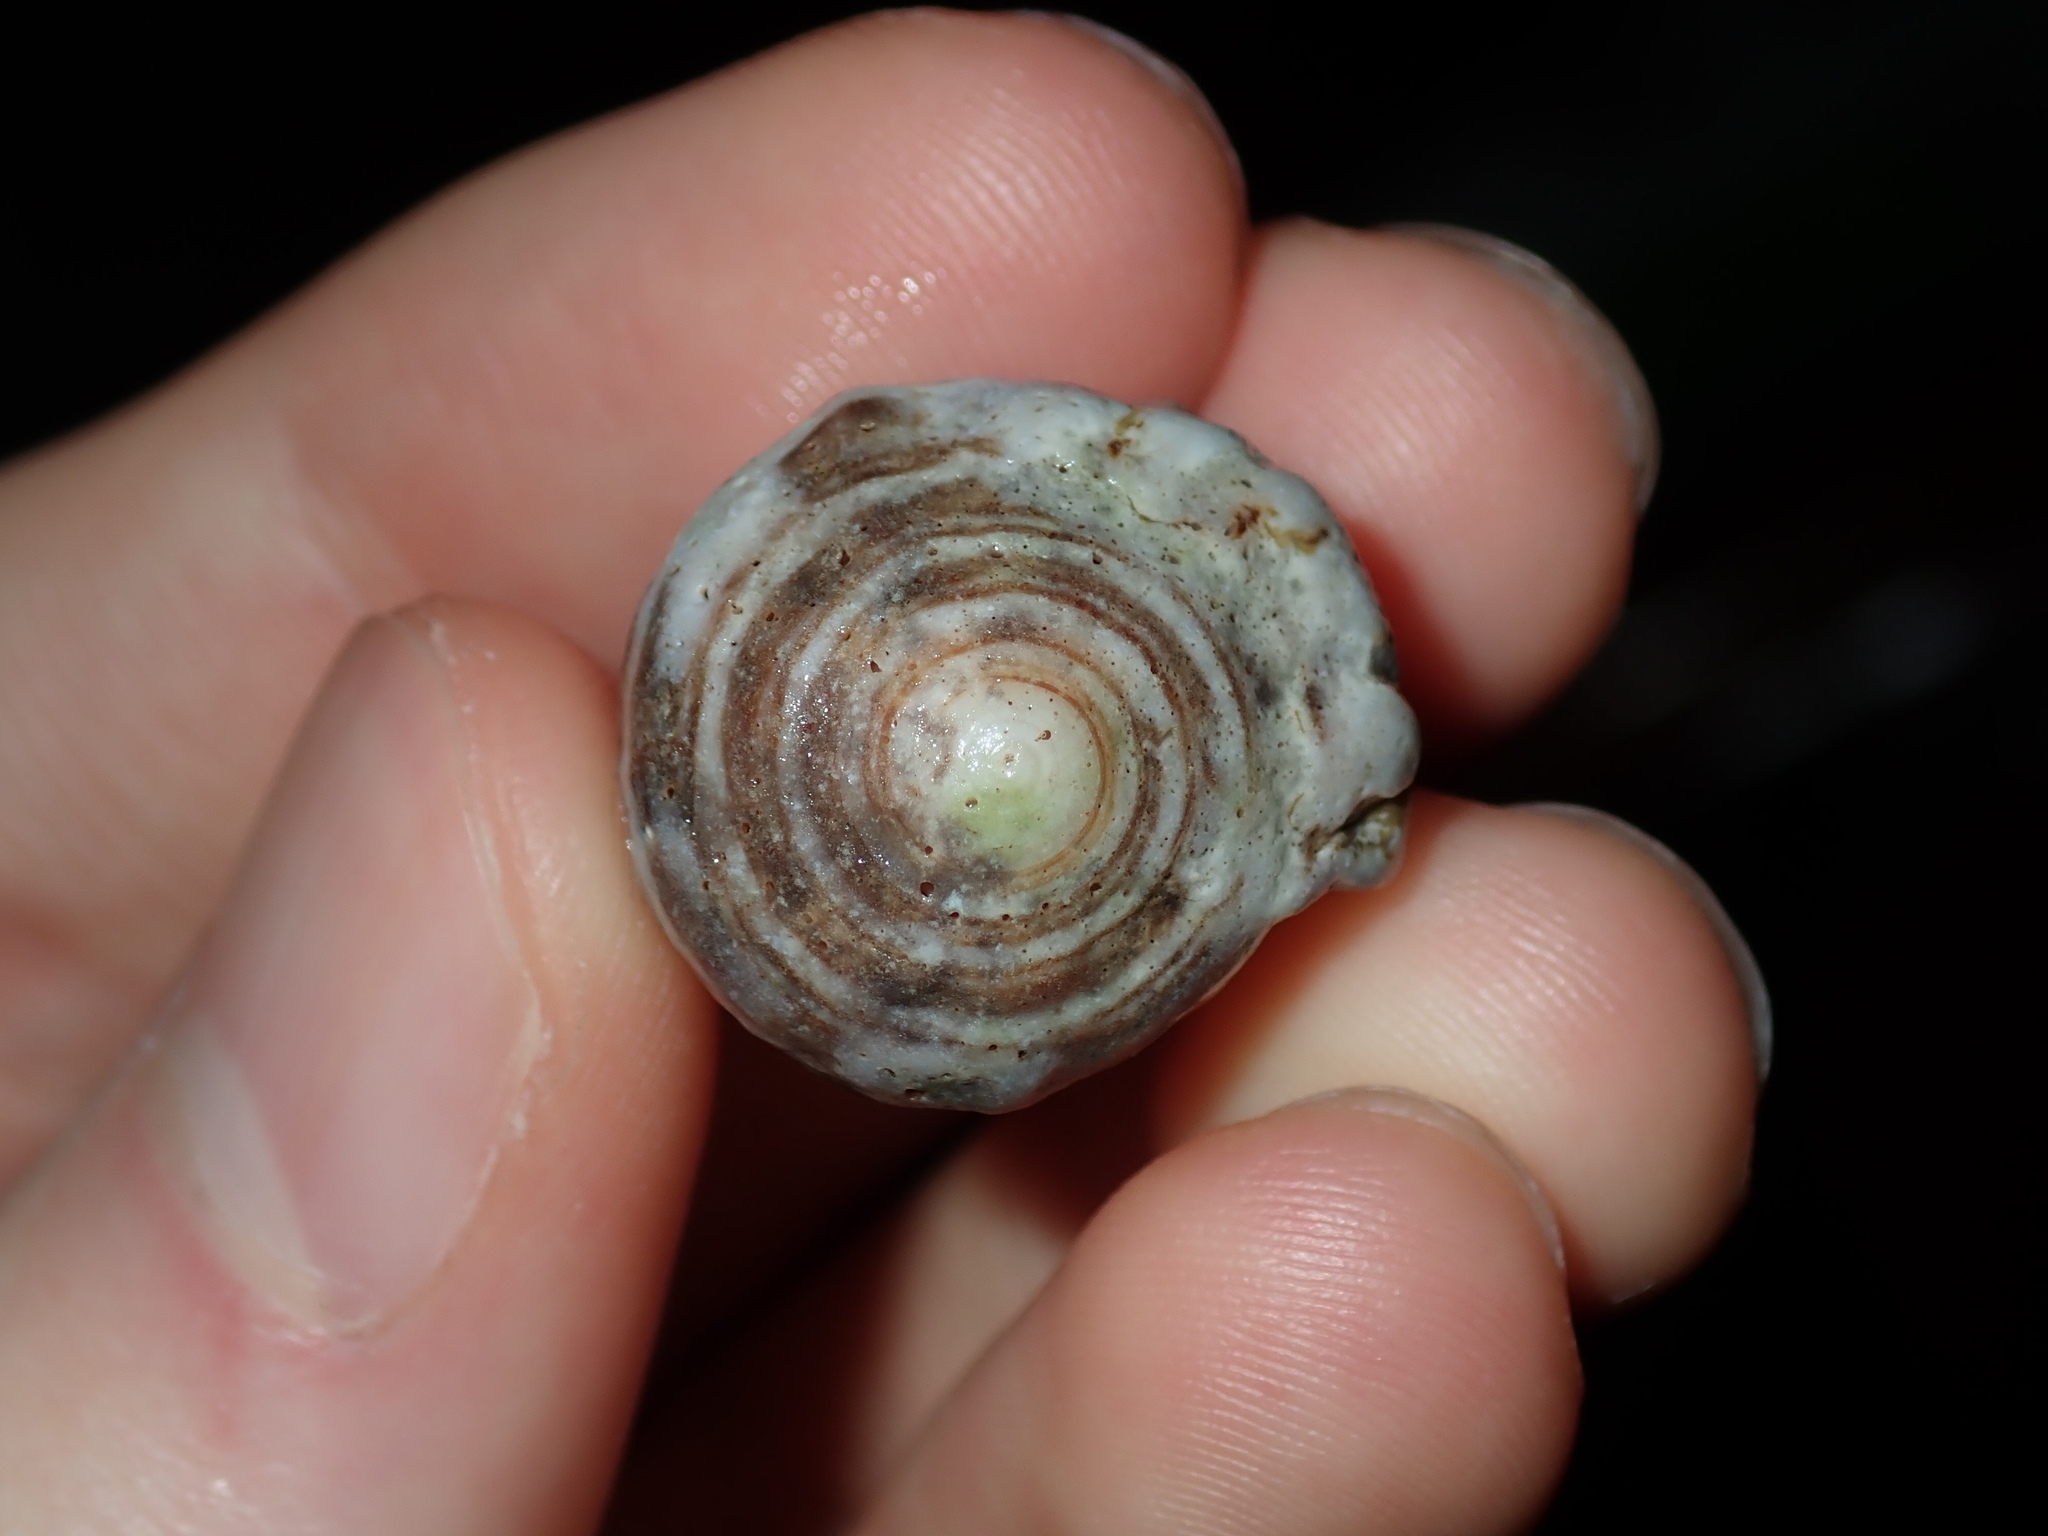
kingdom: Animalia
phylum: Mollusca
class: Gastropoda
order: Neogastropoda
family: Conidae
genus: Conus
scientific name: Conus coronatus
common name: Coronated cone
